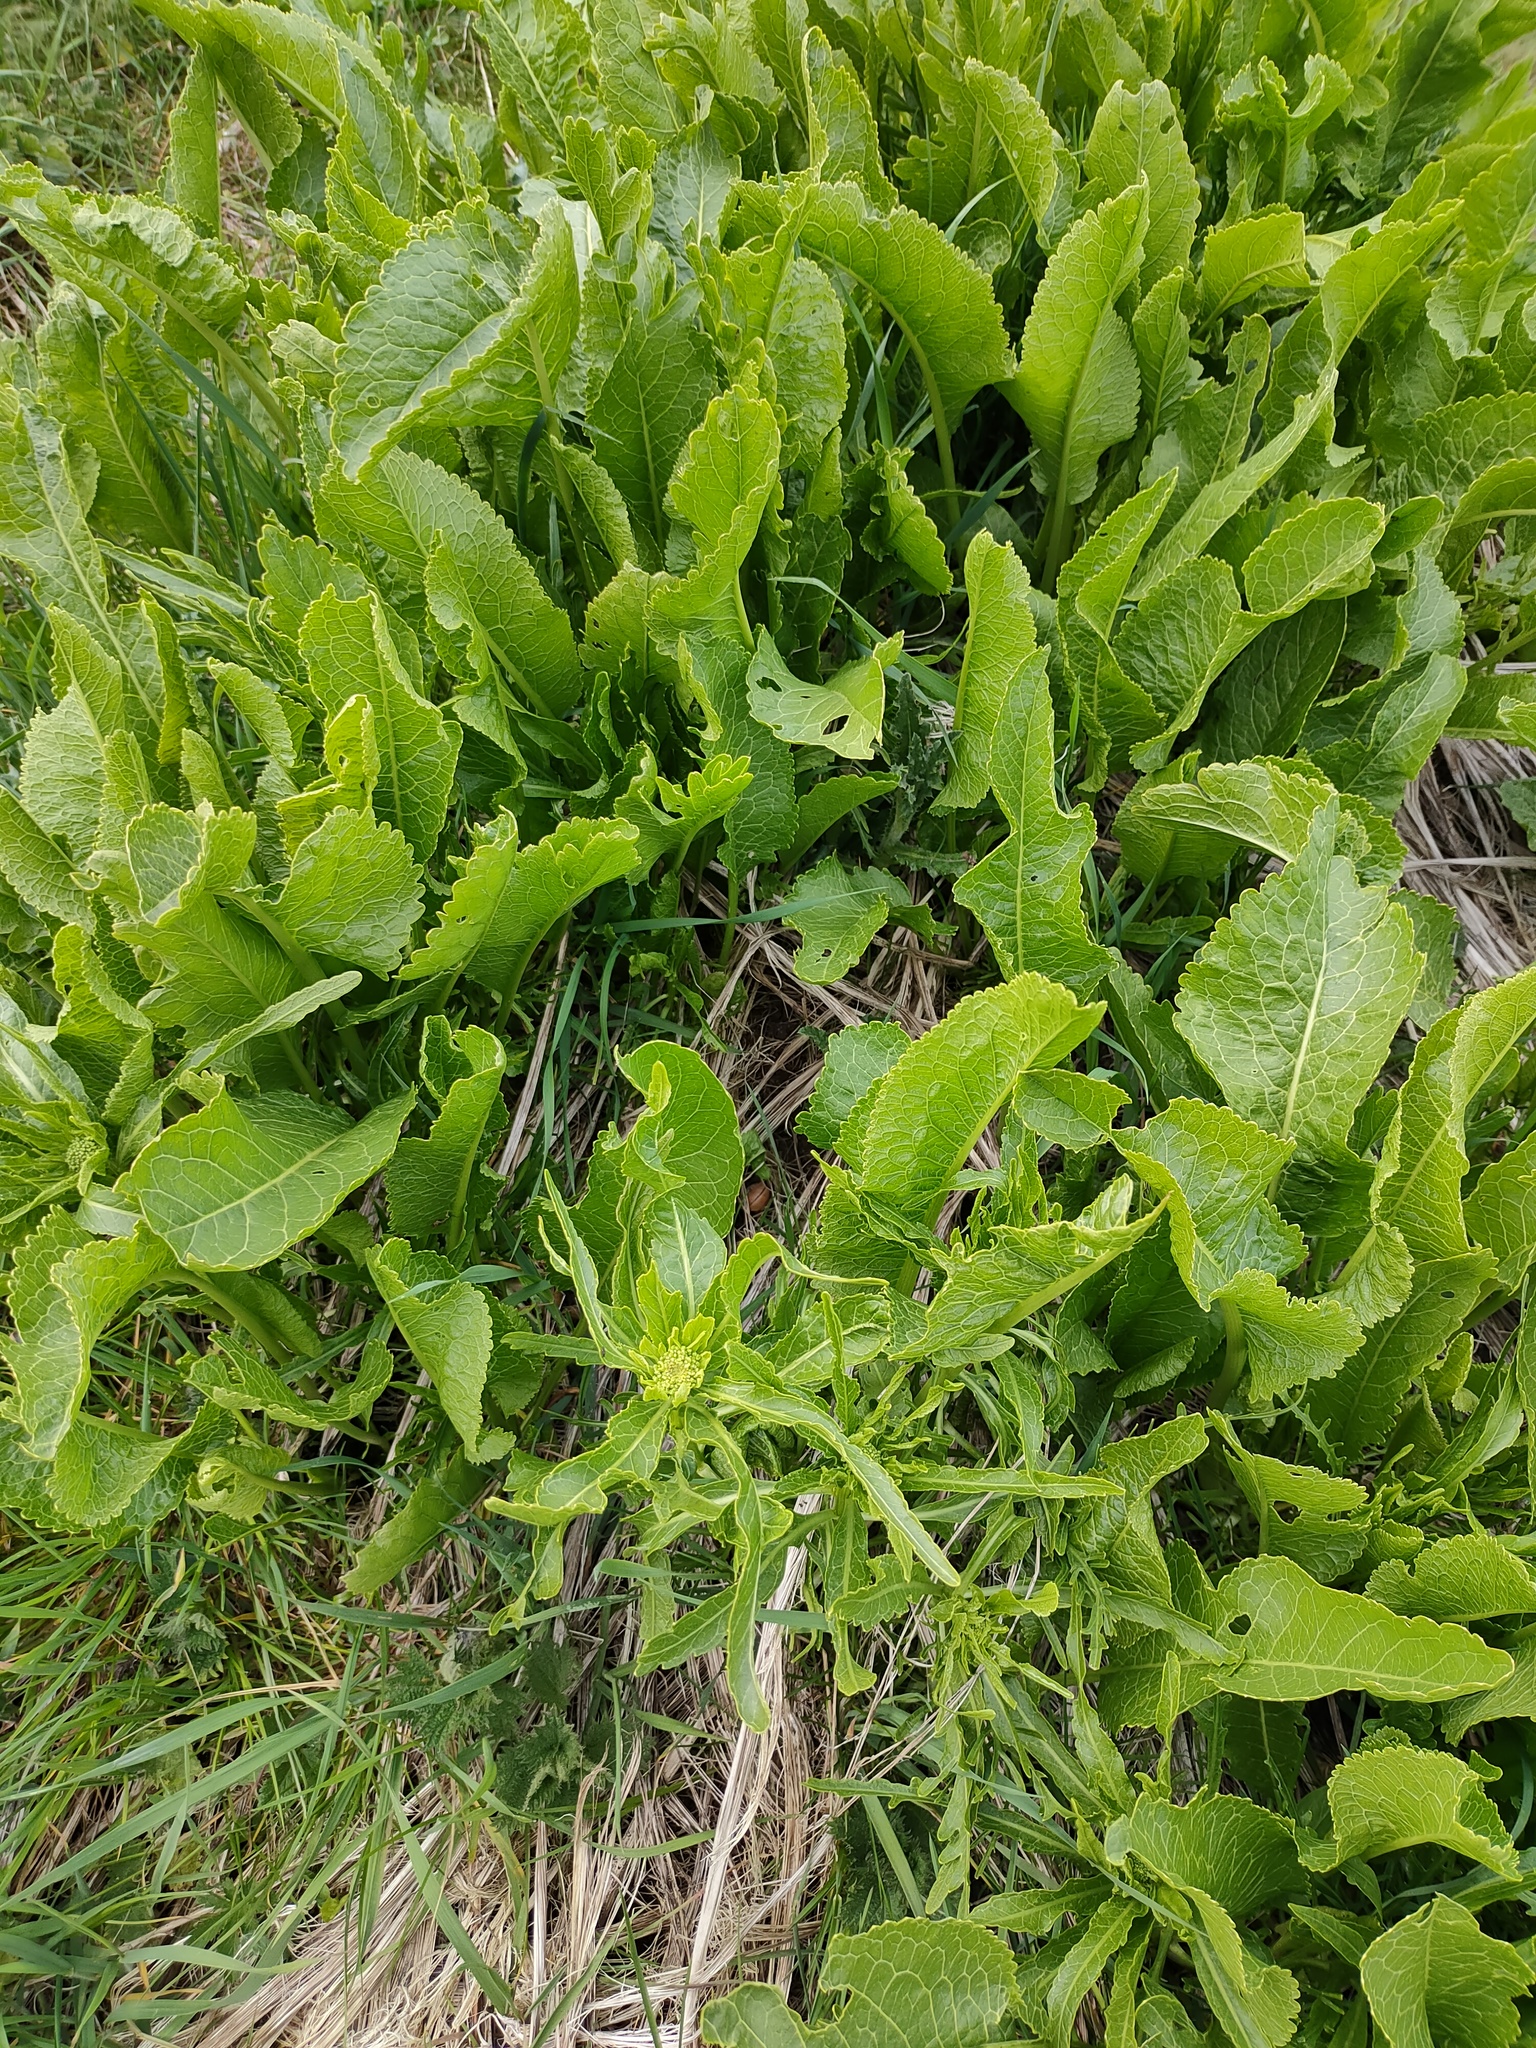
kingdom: Plantae
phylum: Tracheophyta
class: Magnoliopsida
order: Brassicales
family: Brassicaceae
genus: Armoracia
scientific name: Armoracia rusticana
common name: Horseradish
